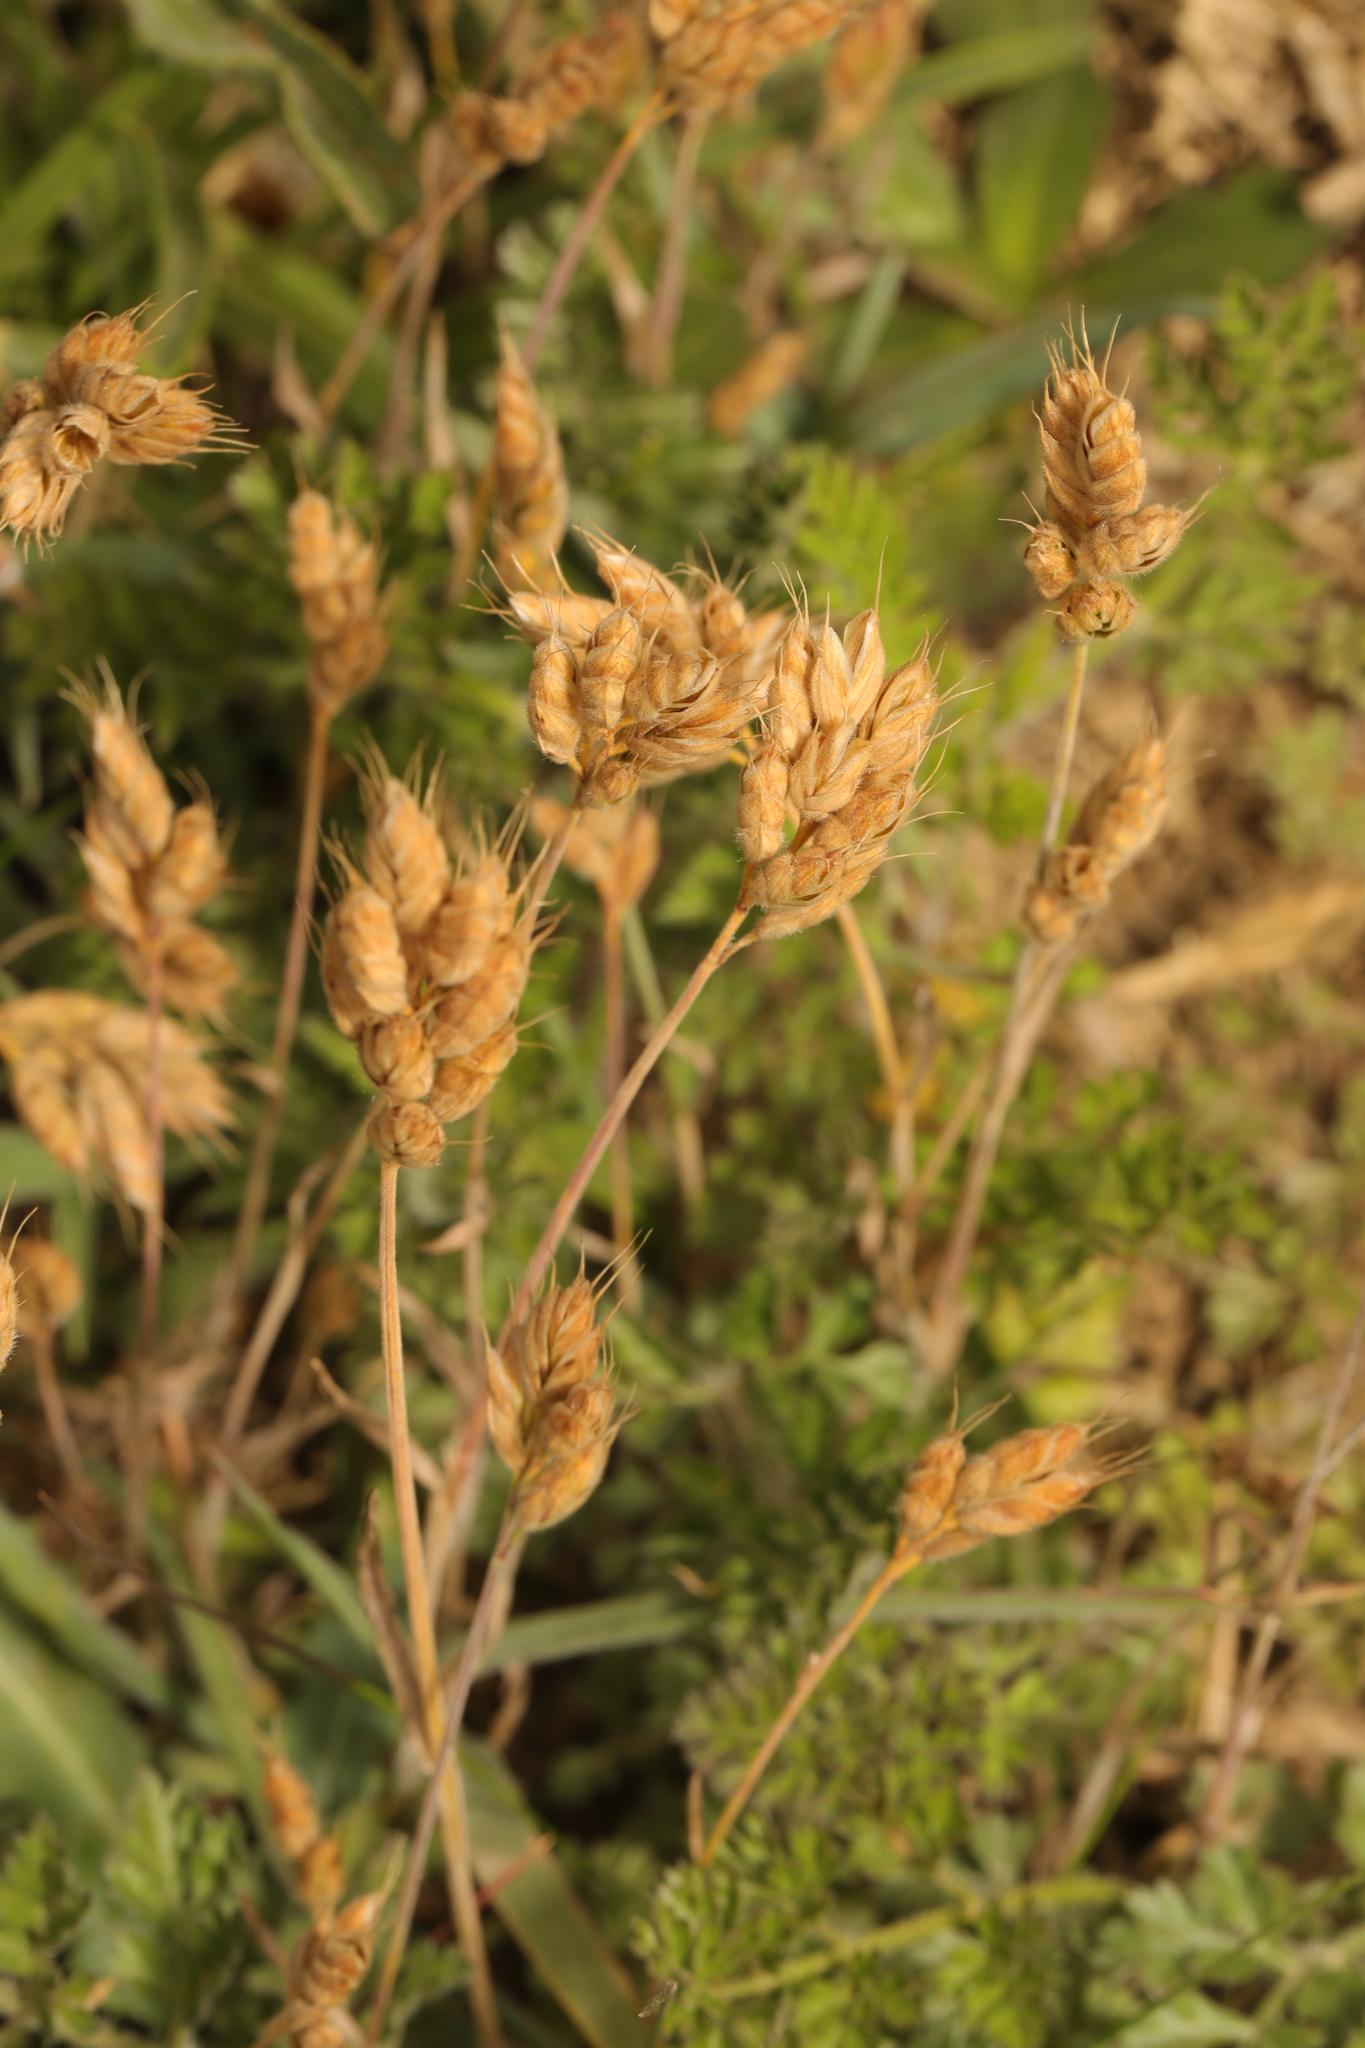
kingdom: Plantae
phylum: Tracheophyta
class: Liliopsida
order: Poales
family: Poaceae
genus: Bromus
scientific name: Bromus hordeaceus
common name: Soft brome
